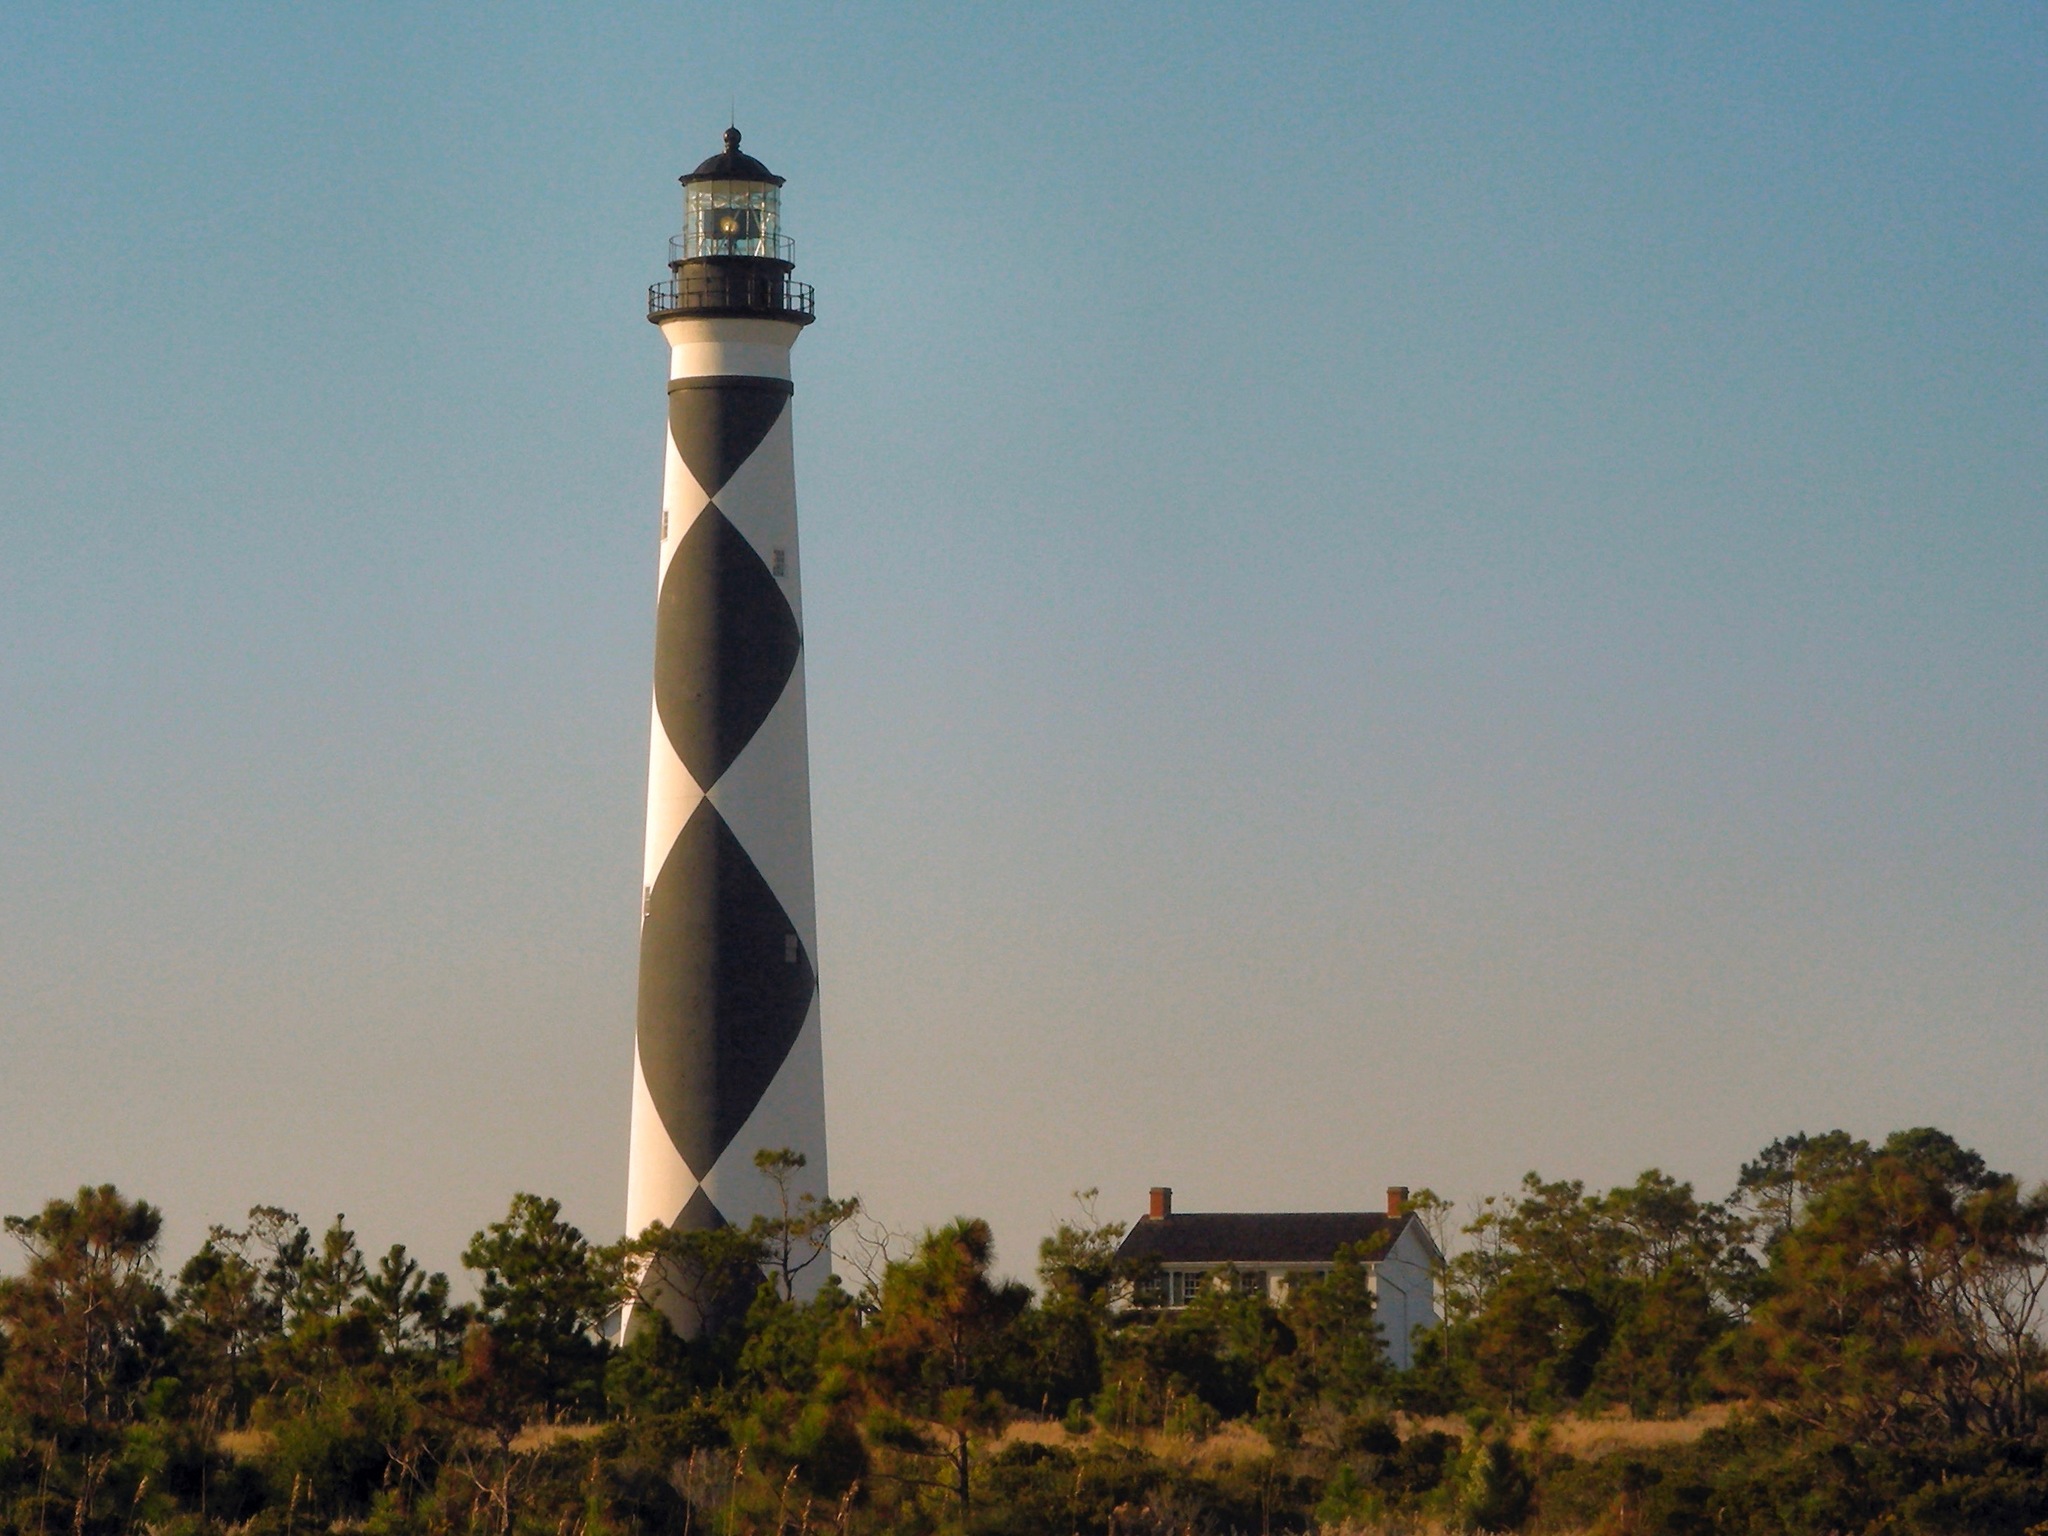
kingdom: Plantae
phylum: Tracheophyta
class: Pinopsida
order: Pinales
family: Pinaceae
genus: Pinus
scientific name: Pinus palustris
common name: Longleaf pine
